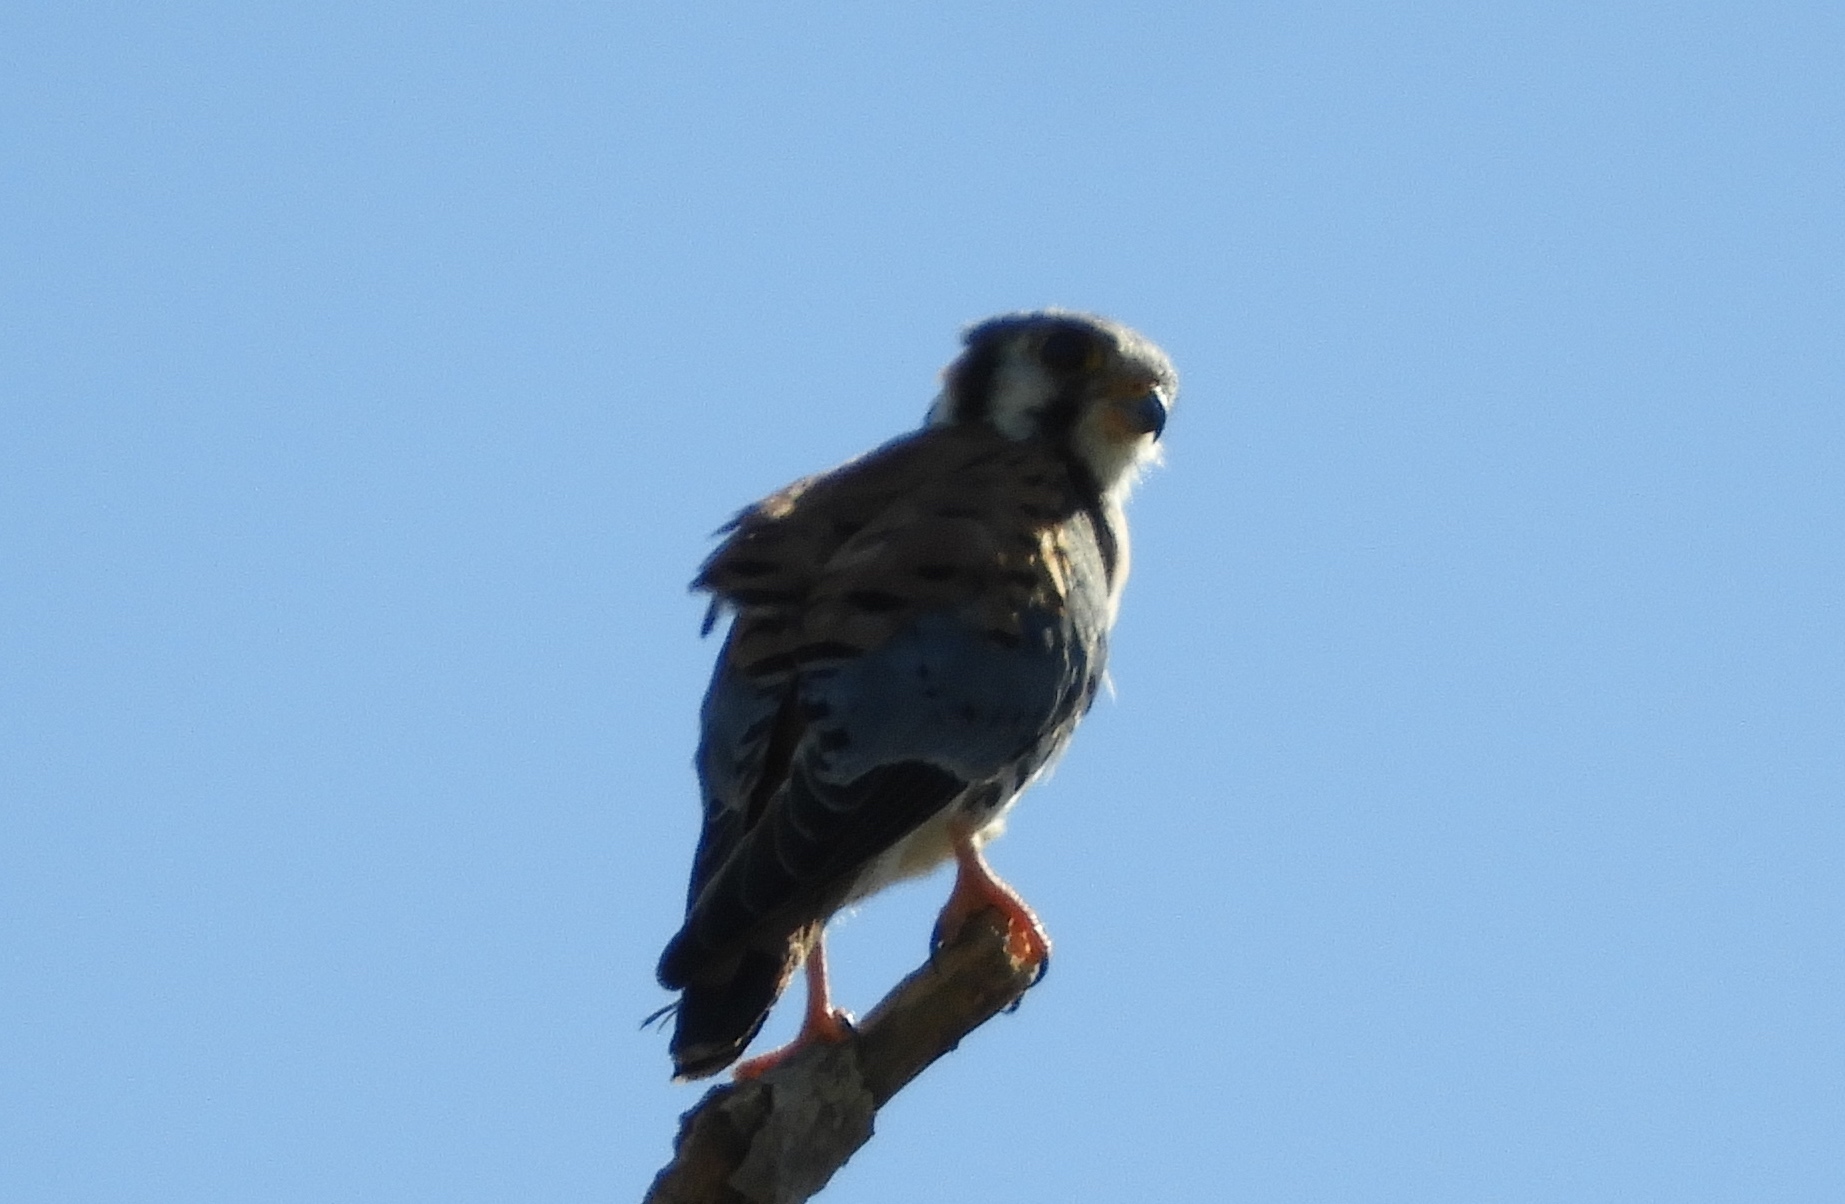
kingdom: Animalia
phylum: Chordata
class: Aves
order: Falconiformes
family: Falconidae
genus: Falco
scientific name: Falco sparverius
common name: American kestrel
